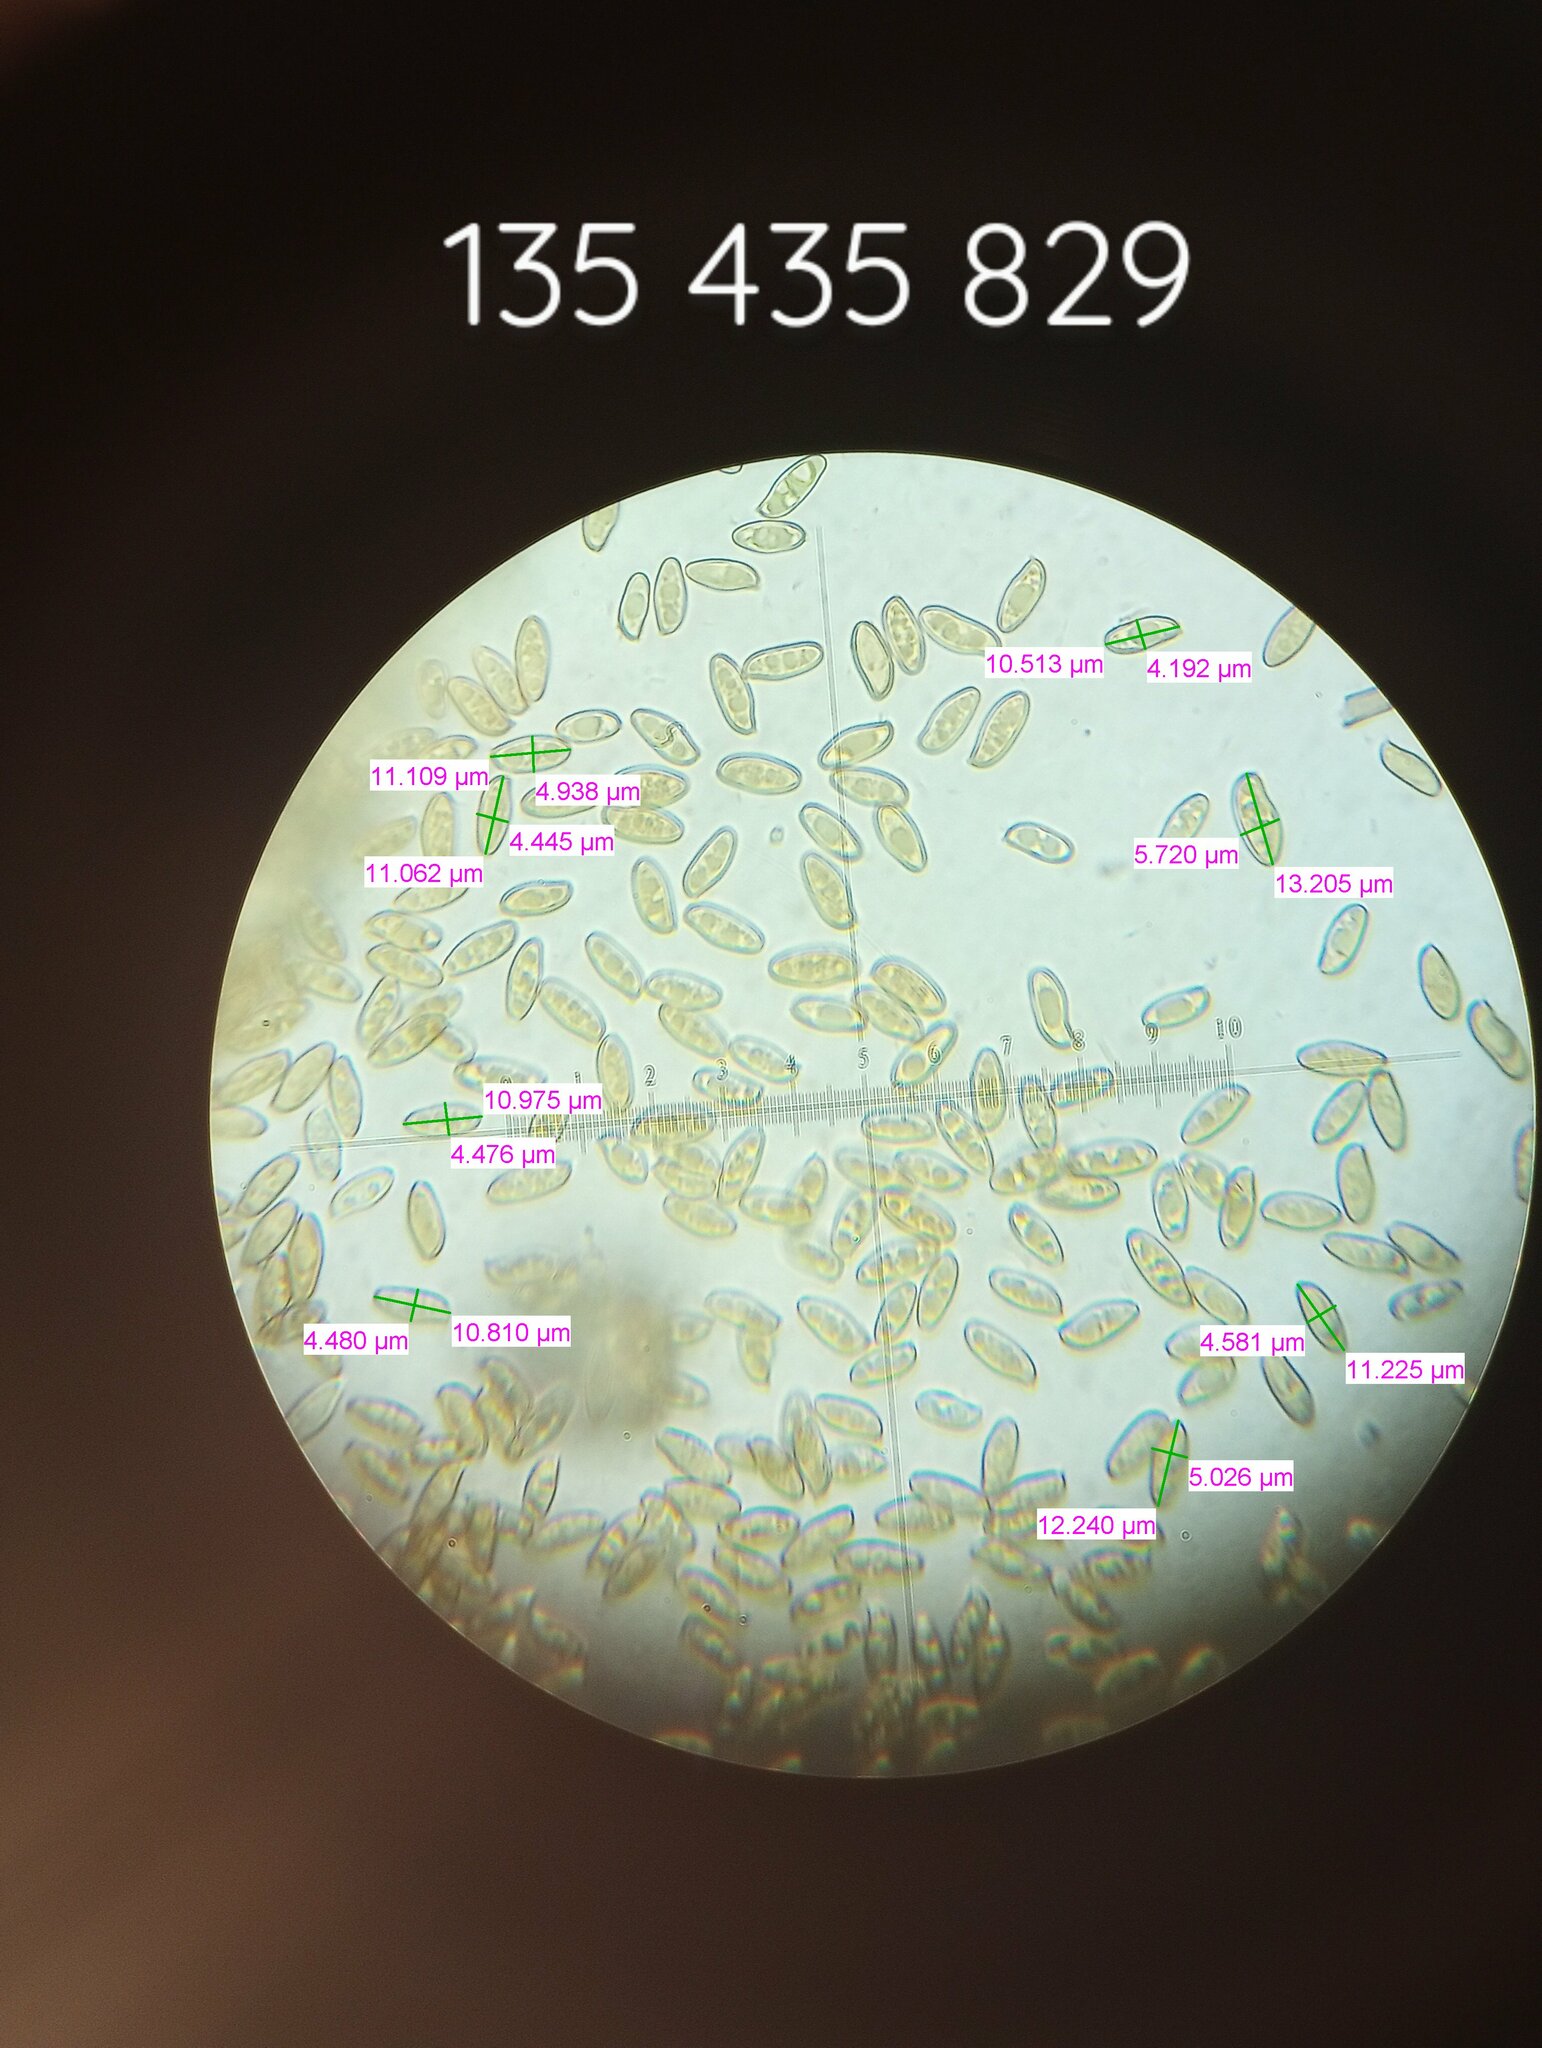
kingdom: Fungi
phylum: Basidiomycota
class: Agaricomycetes
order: Boletales
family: Boletaceae
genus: Xerocomellus
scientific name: Xerocomellus chrysenteron
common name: Red-cracking bolete
